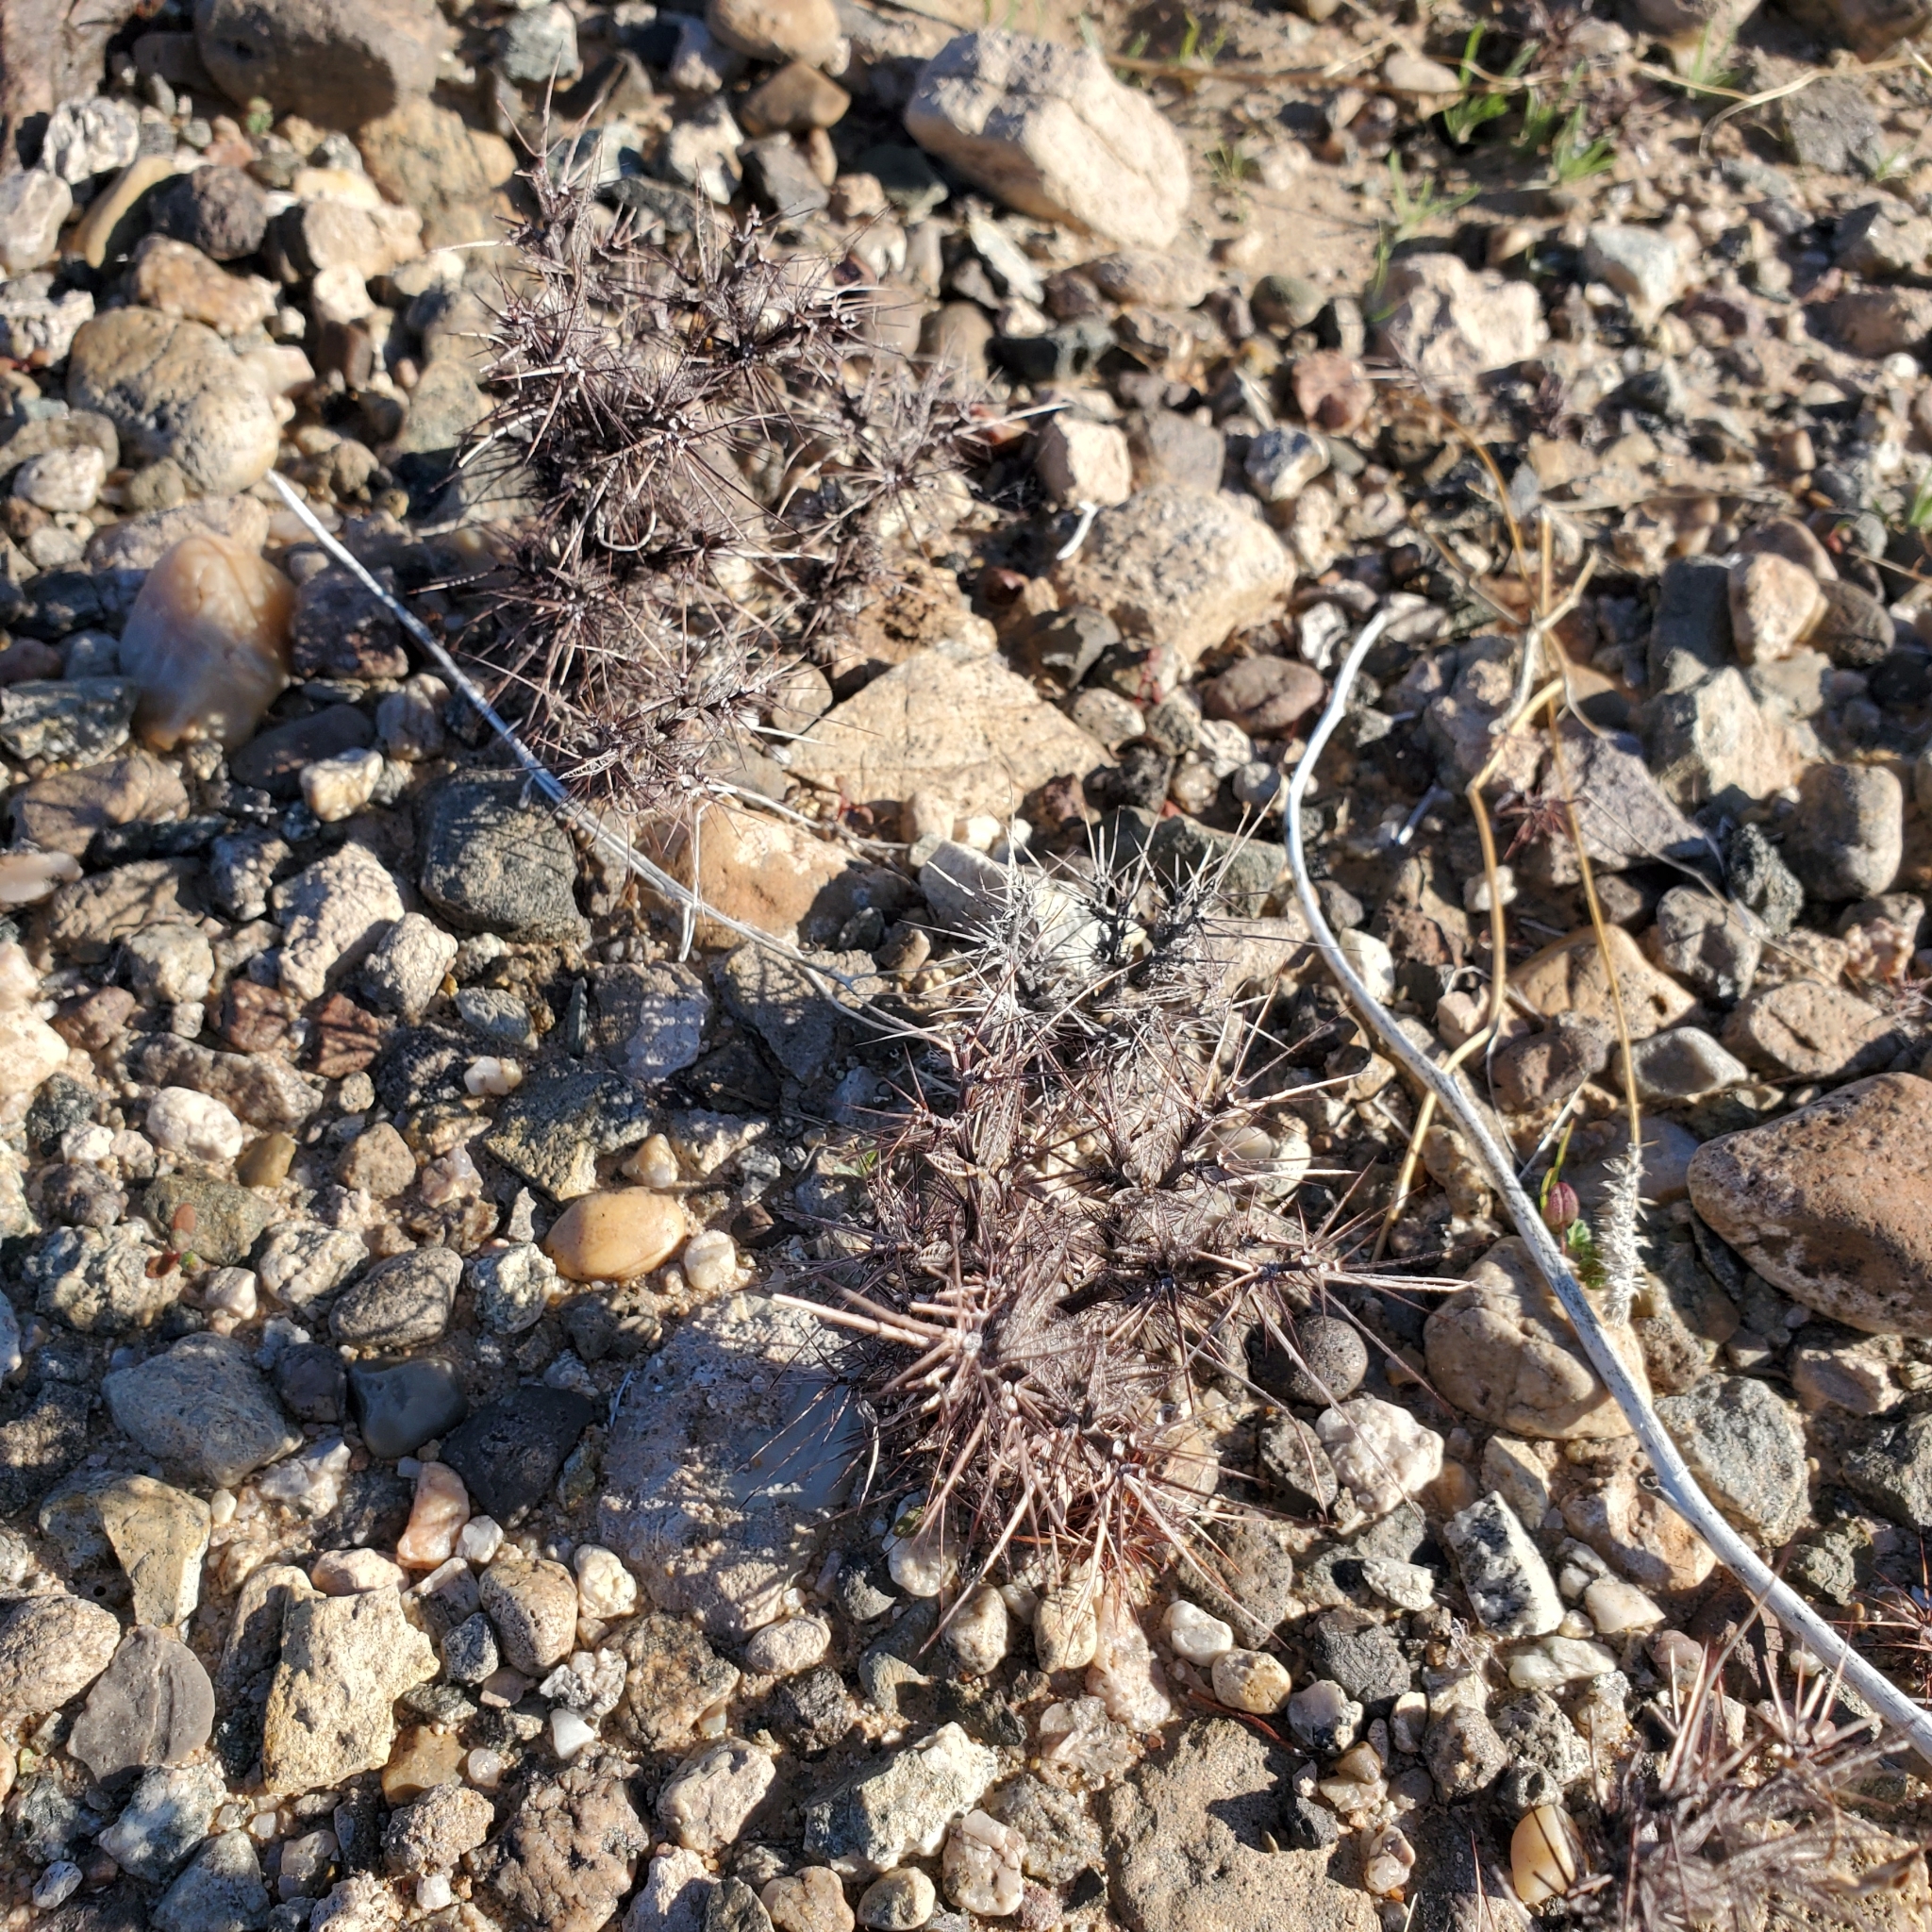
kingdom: Plantae
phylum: Tracheophyta
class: Magnoliopsida
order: Caryophyllales
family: Polygonaceae
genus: Chorizanthe
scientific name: Chorizanthe rigida
